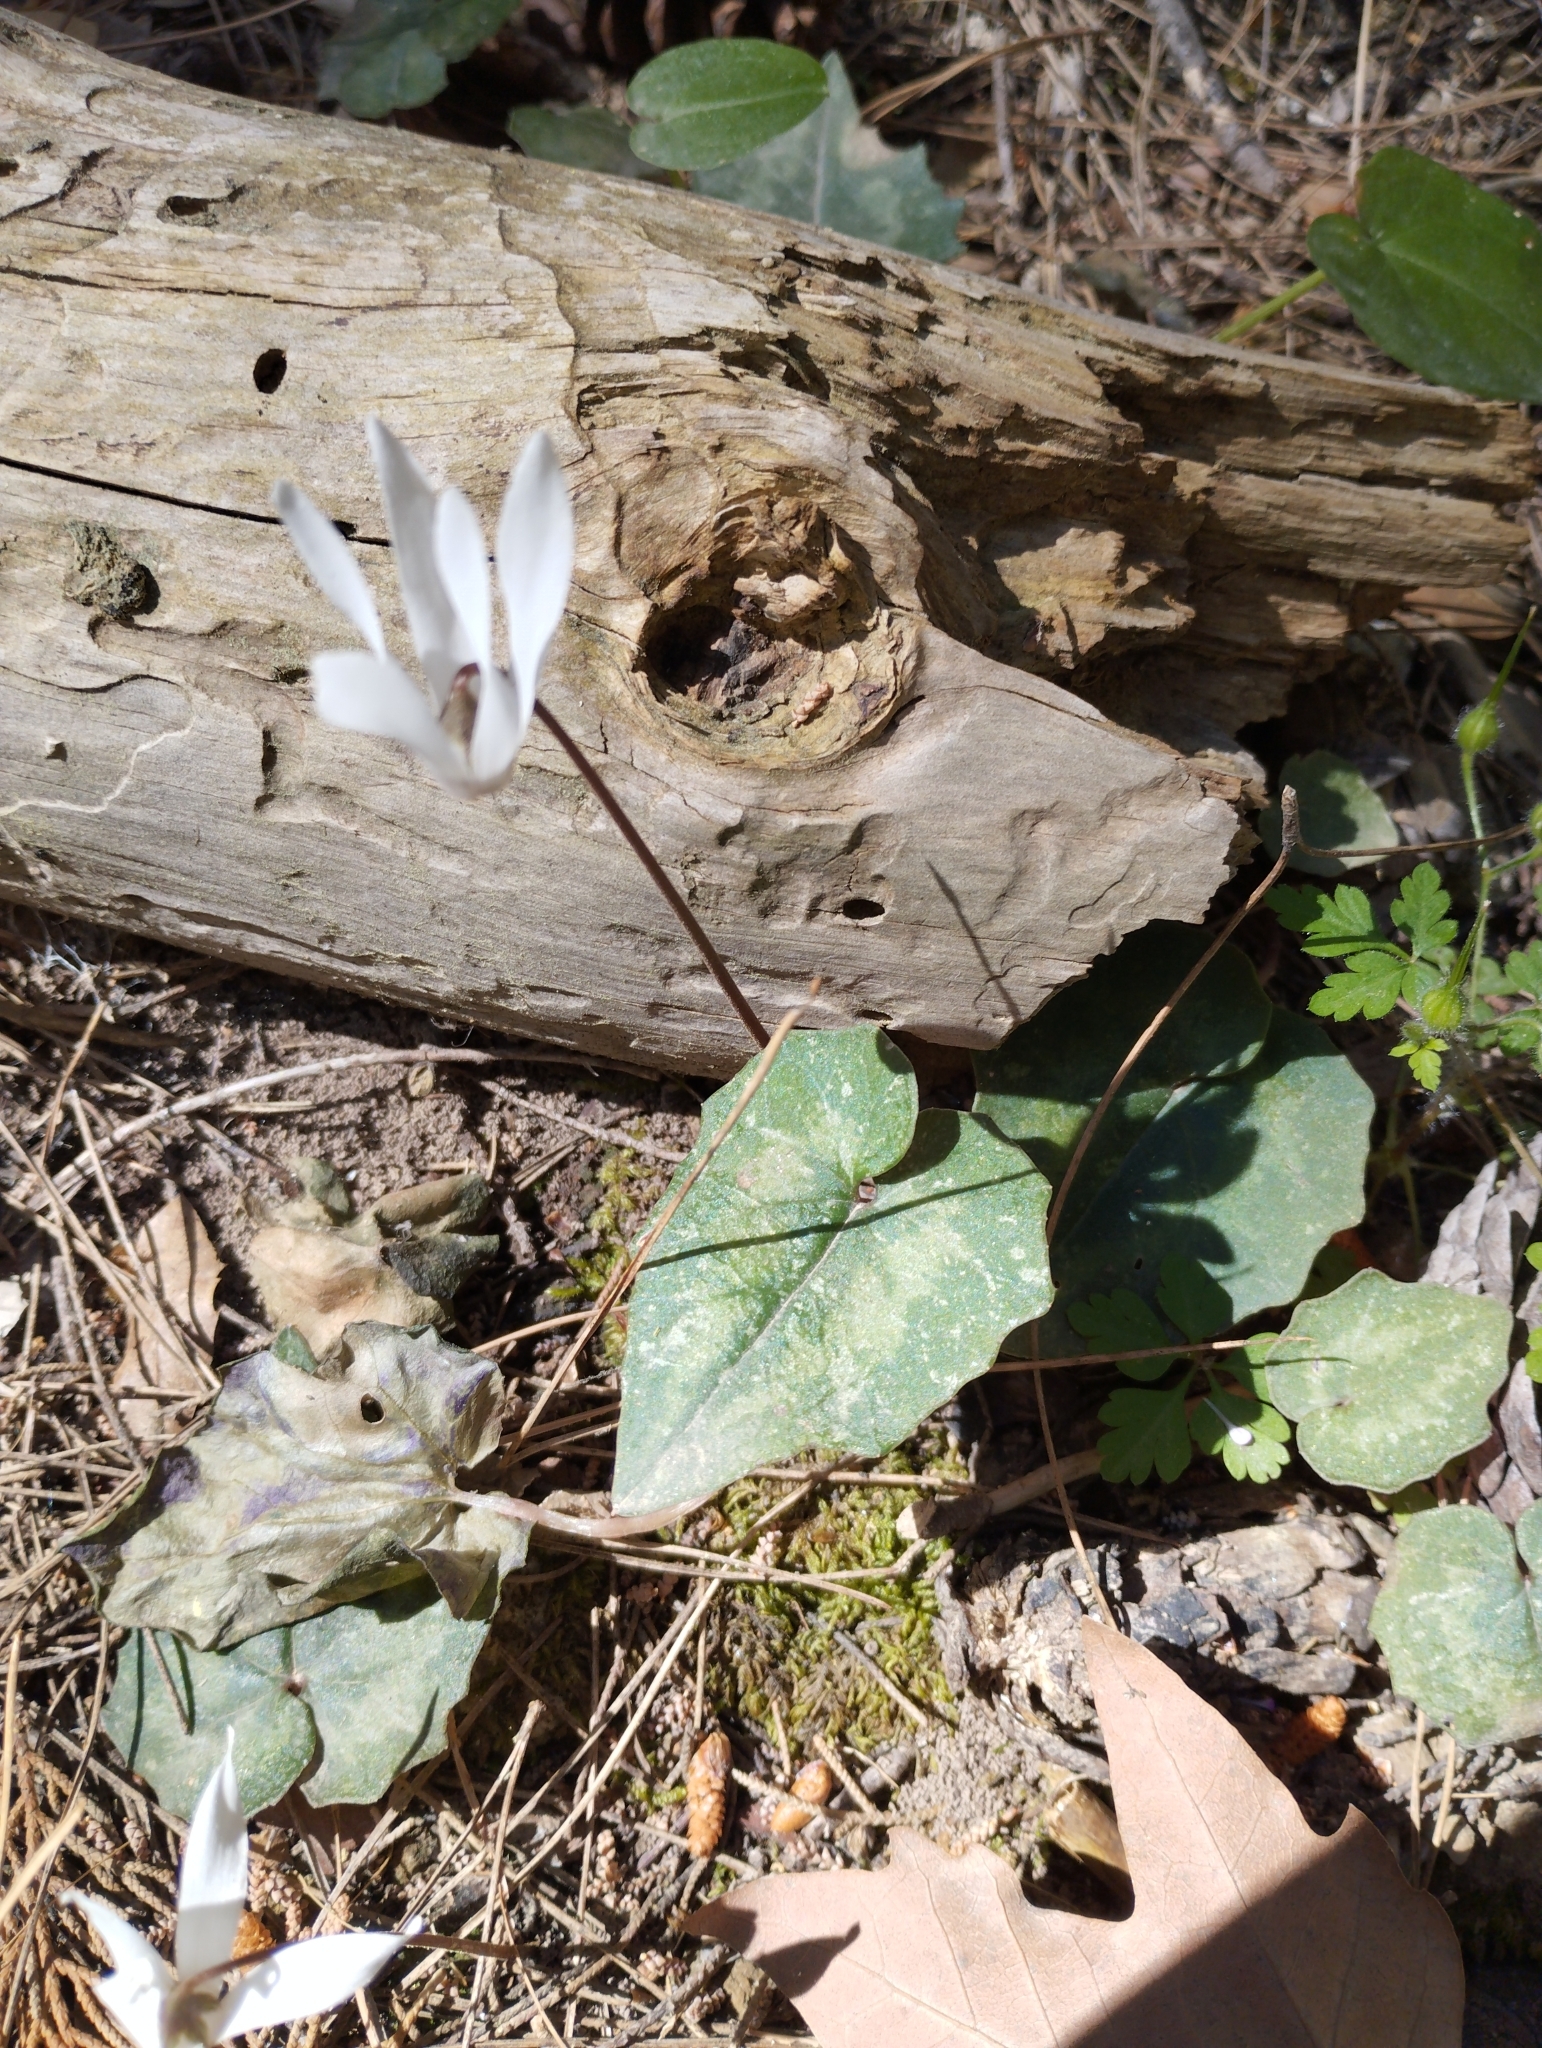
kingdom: Plantae
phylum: Tracheophyta
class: Magnoliopsida
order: Ericales
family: Primulaceae
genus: Cyclamen
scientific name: Cyclamen creticum
